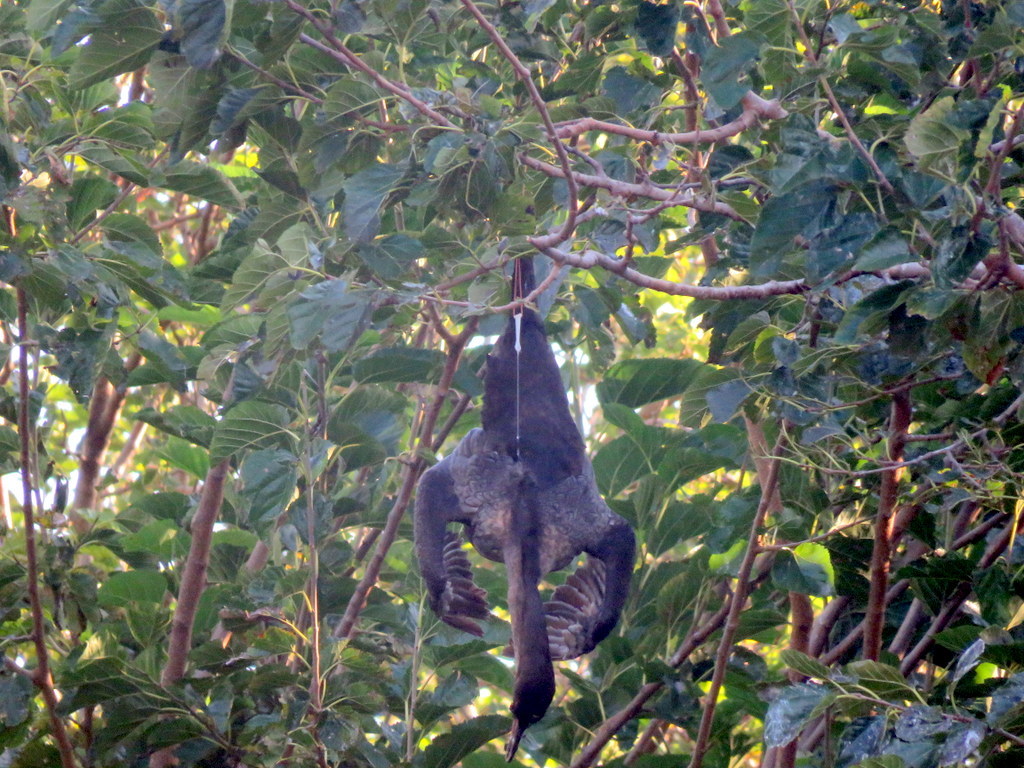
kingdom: Animalia
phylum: Chordata
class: Aves
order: Suliformes
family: Phalacrocoracidae
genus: Phalacrocorax
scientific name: Phalacrocorax brasilianus
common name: Neotropic cormorant
